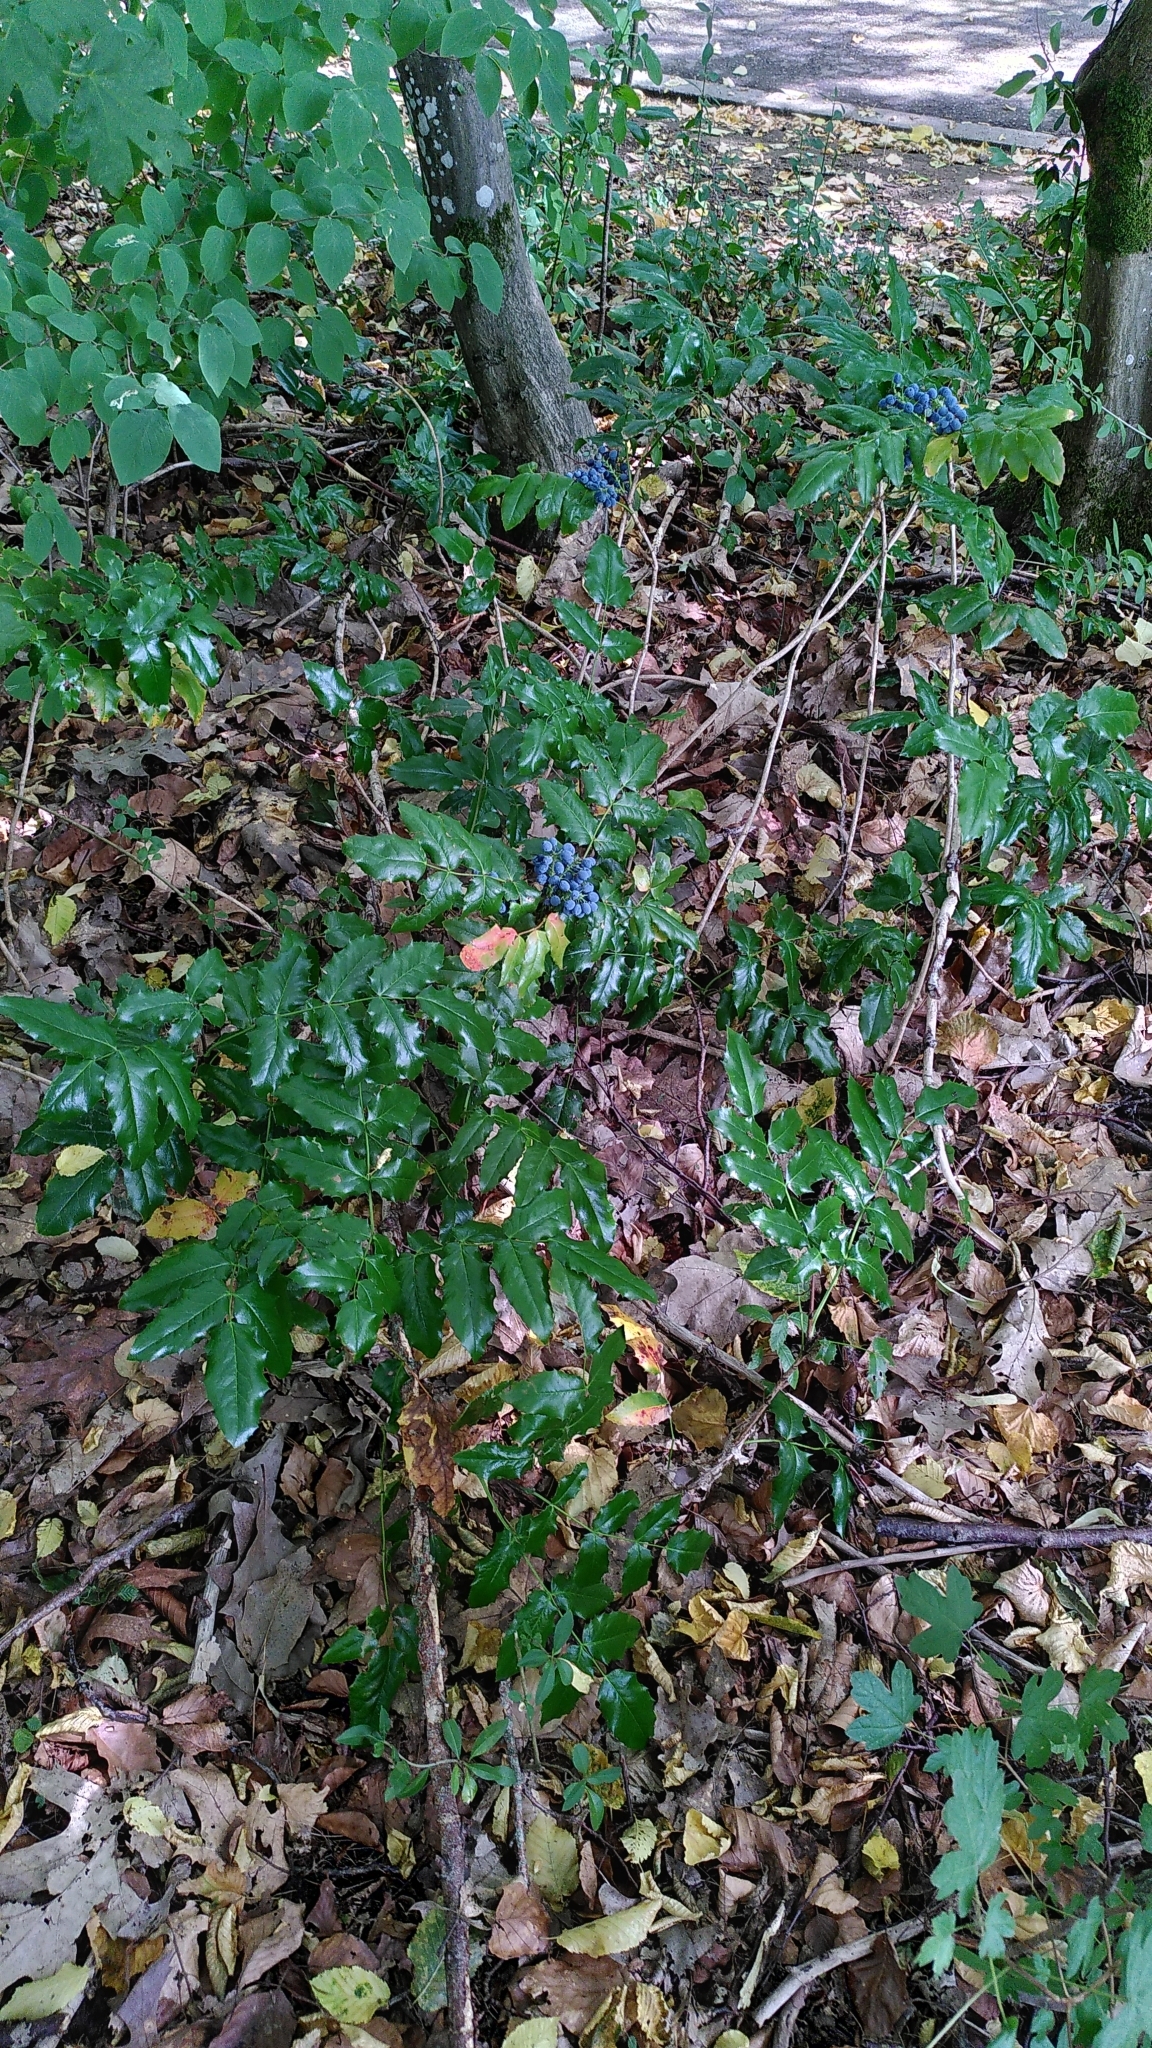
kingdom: Plantae
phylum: Tracheophyta
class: Magnoliopsida
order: Ranunculales
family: Berberidaceae
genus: Mahonia
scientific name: Mahonia aquifolium
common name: Oregon-grape
